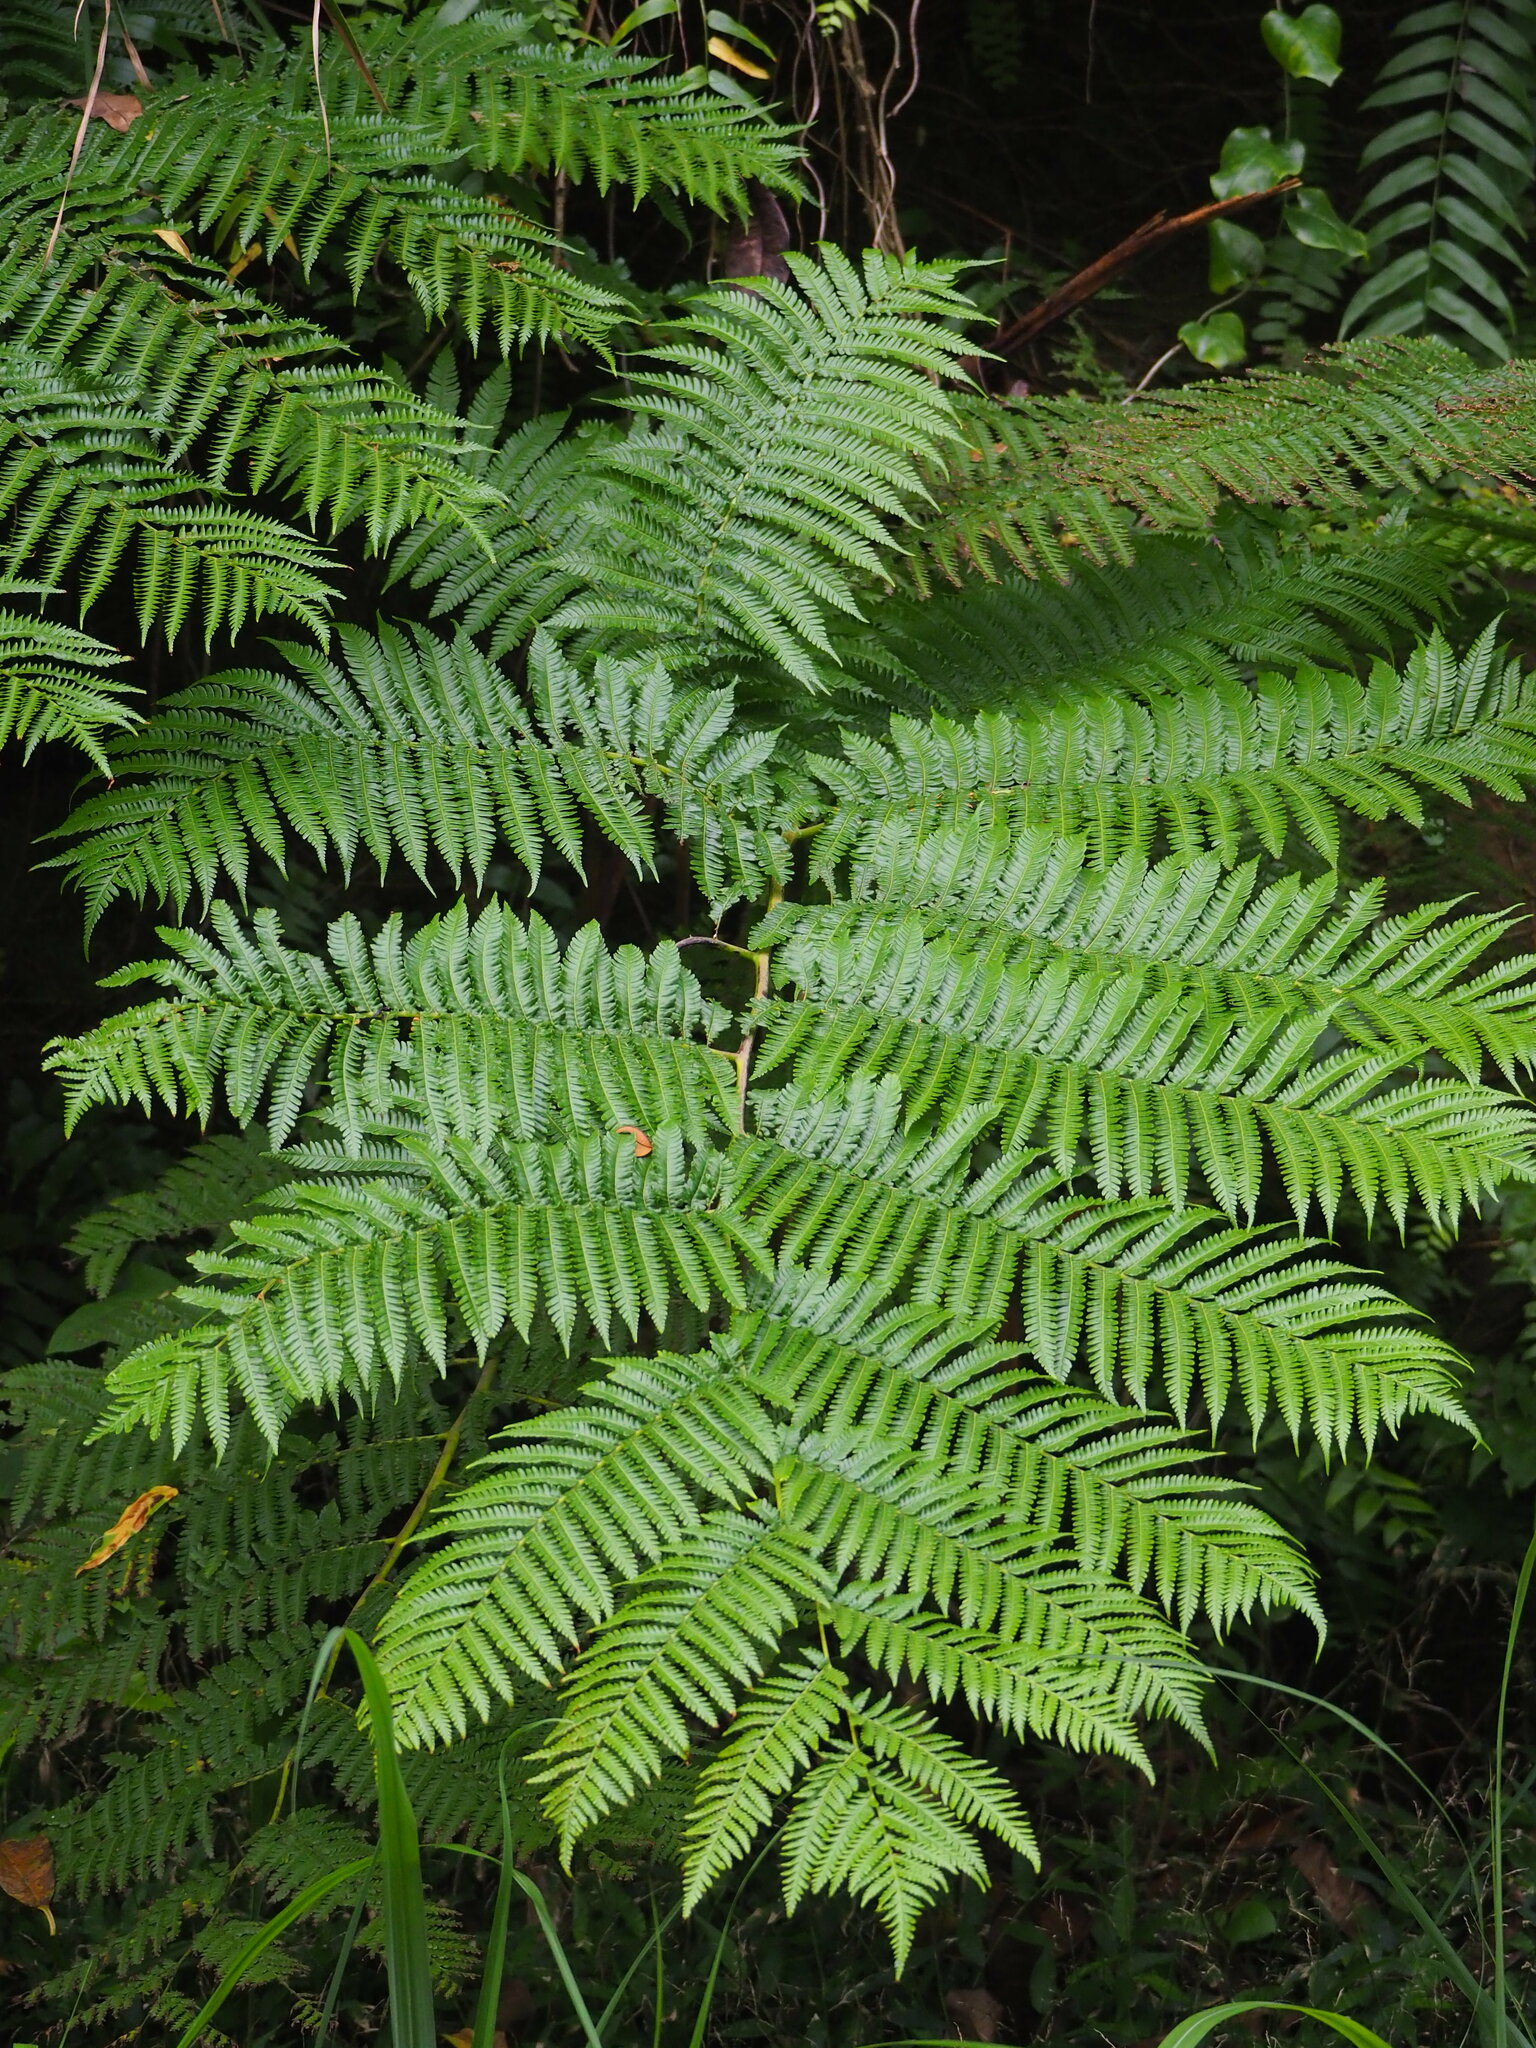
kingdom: Plantae
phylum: Tracheophyta
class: Polypodiopsida
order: Cyatheales
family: Cyatheaceae
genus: Alsophila
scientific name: Alsophila lepifera
